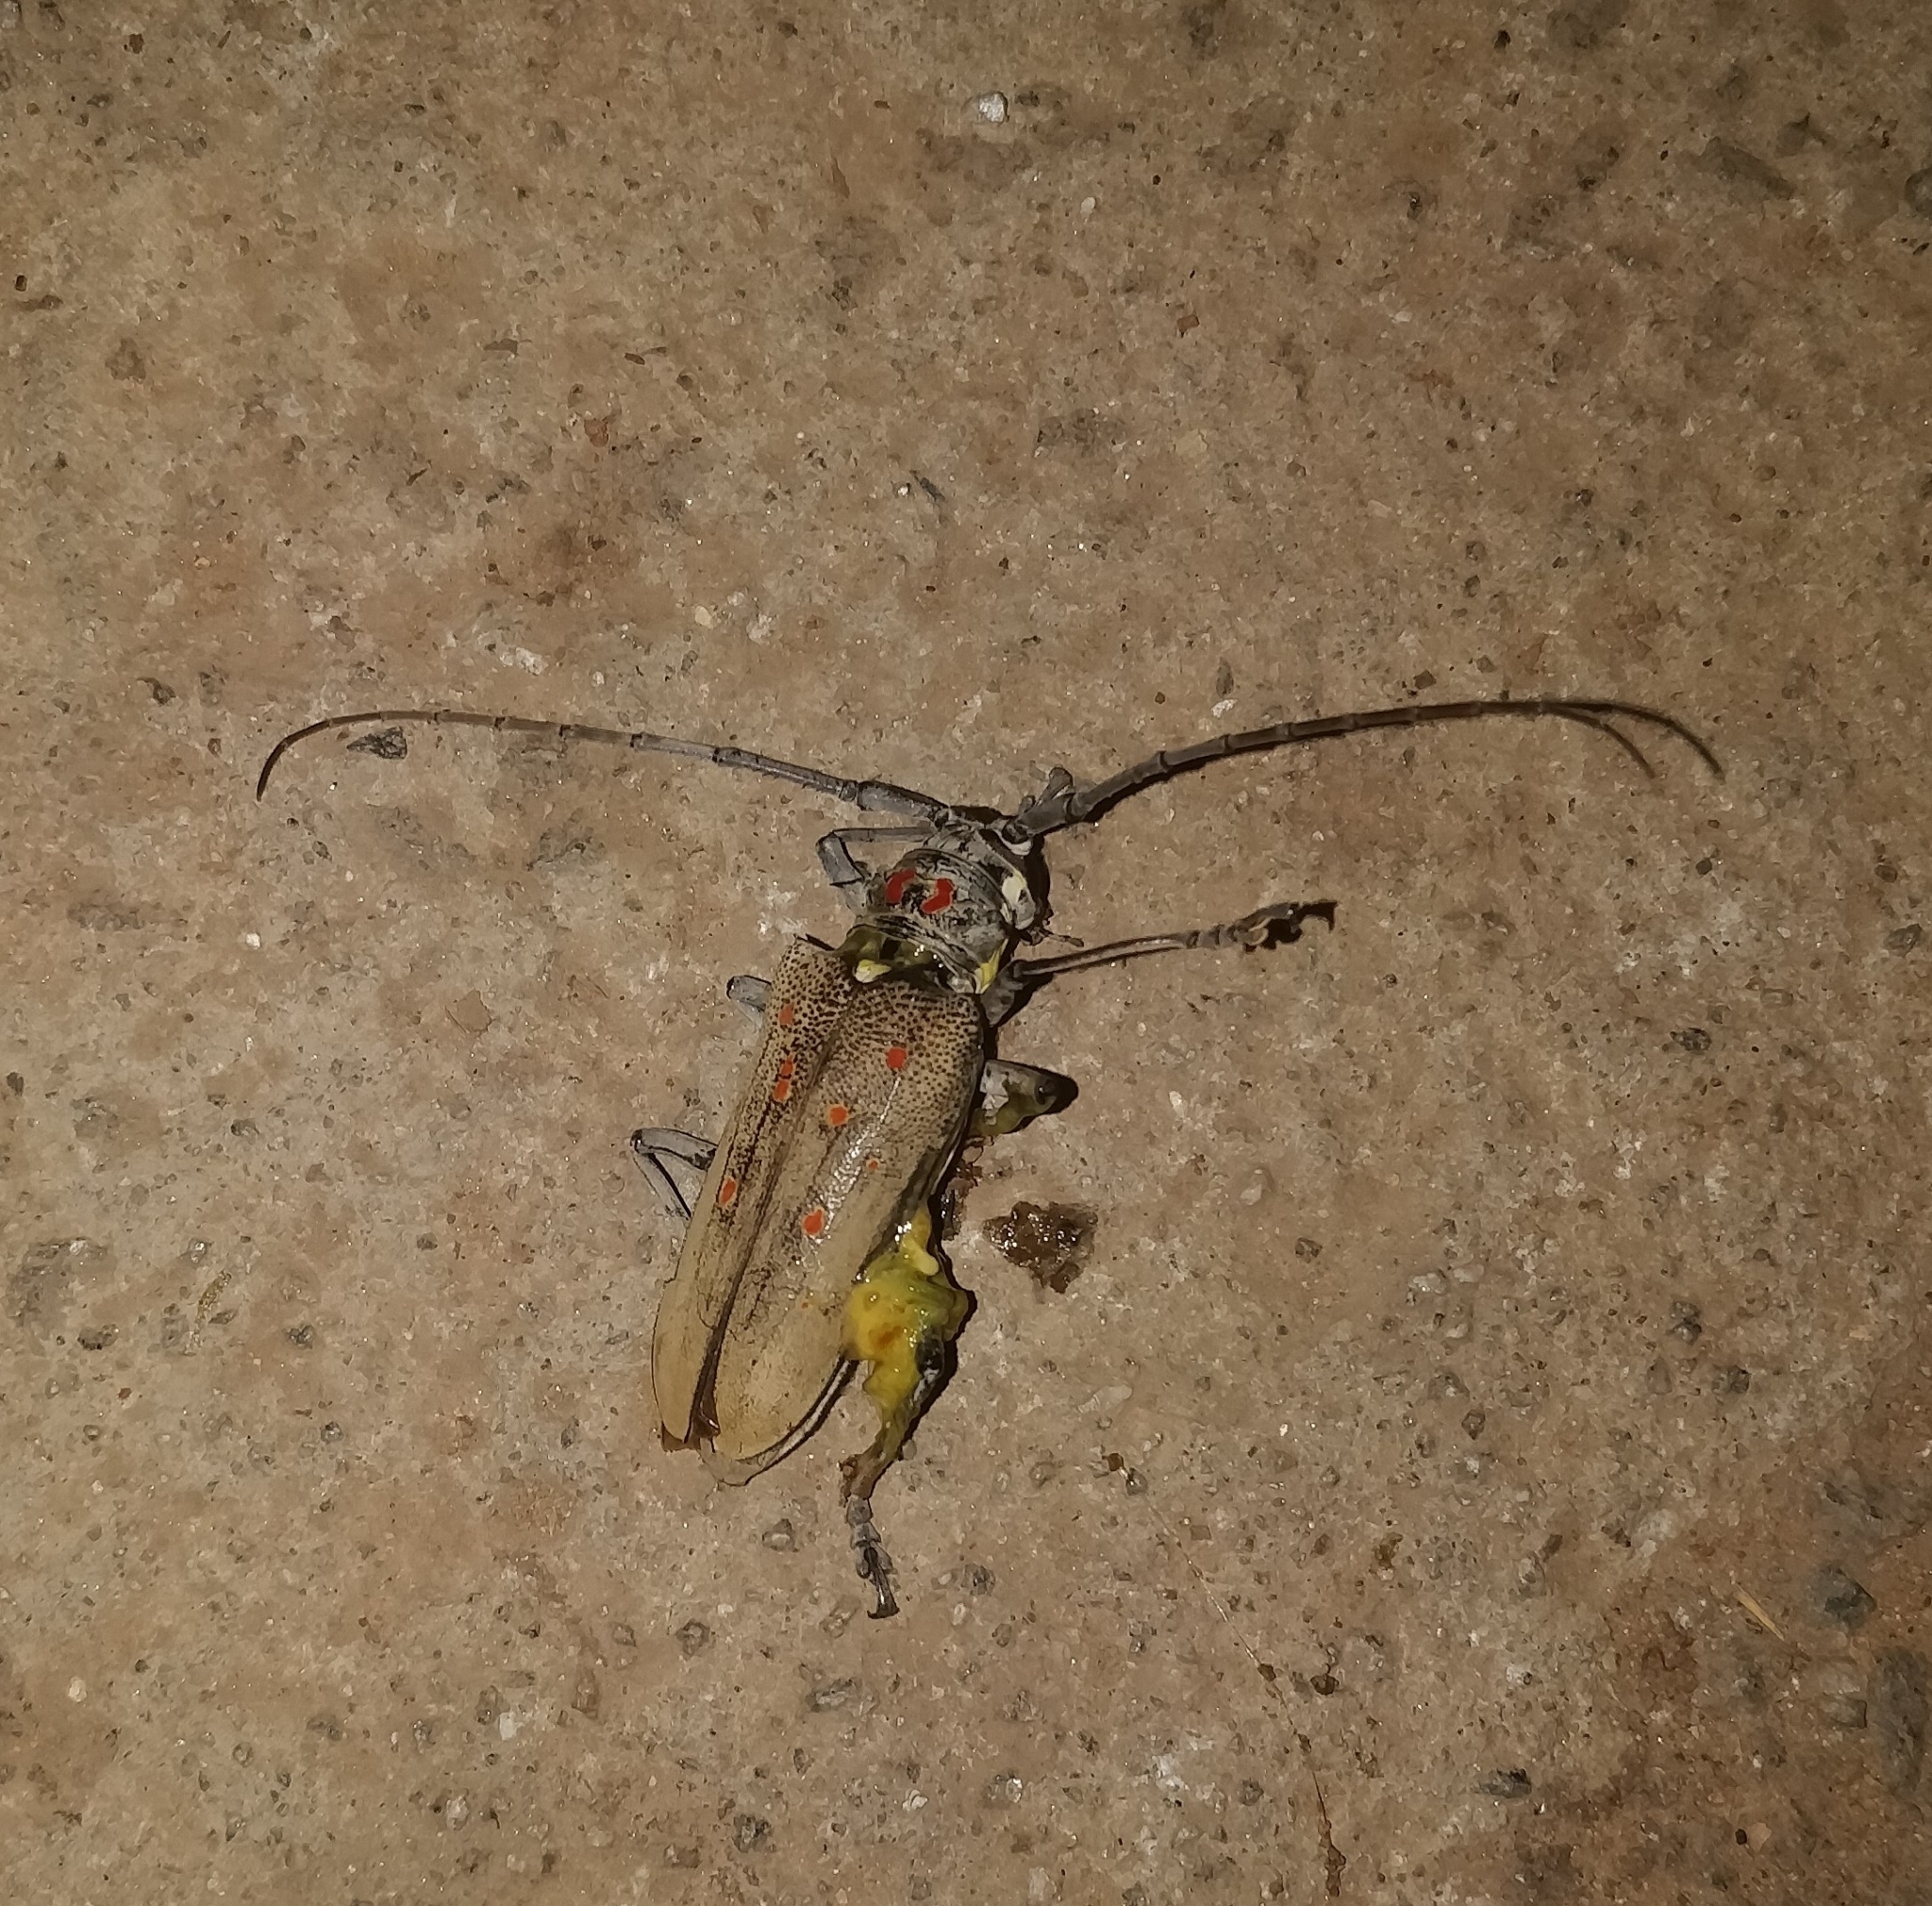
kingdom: Animalia
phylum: Arthropoda
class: Insecta
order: Coleoptera
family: Cerambycidae
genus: Batocera
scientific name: Batocera rufomaculata
